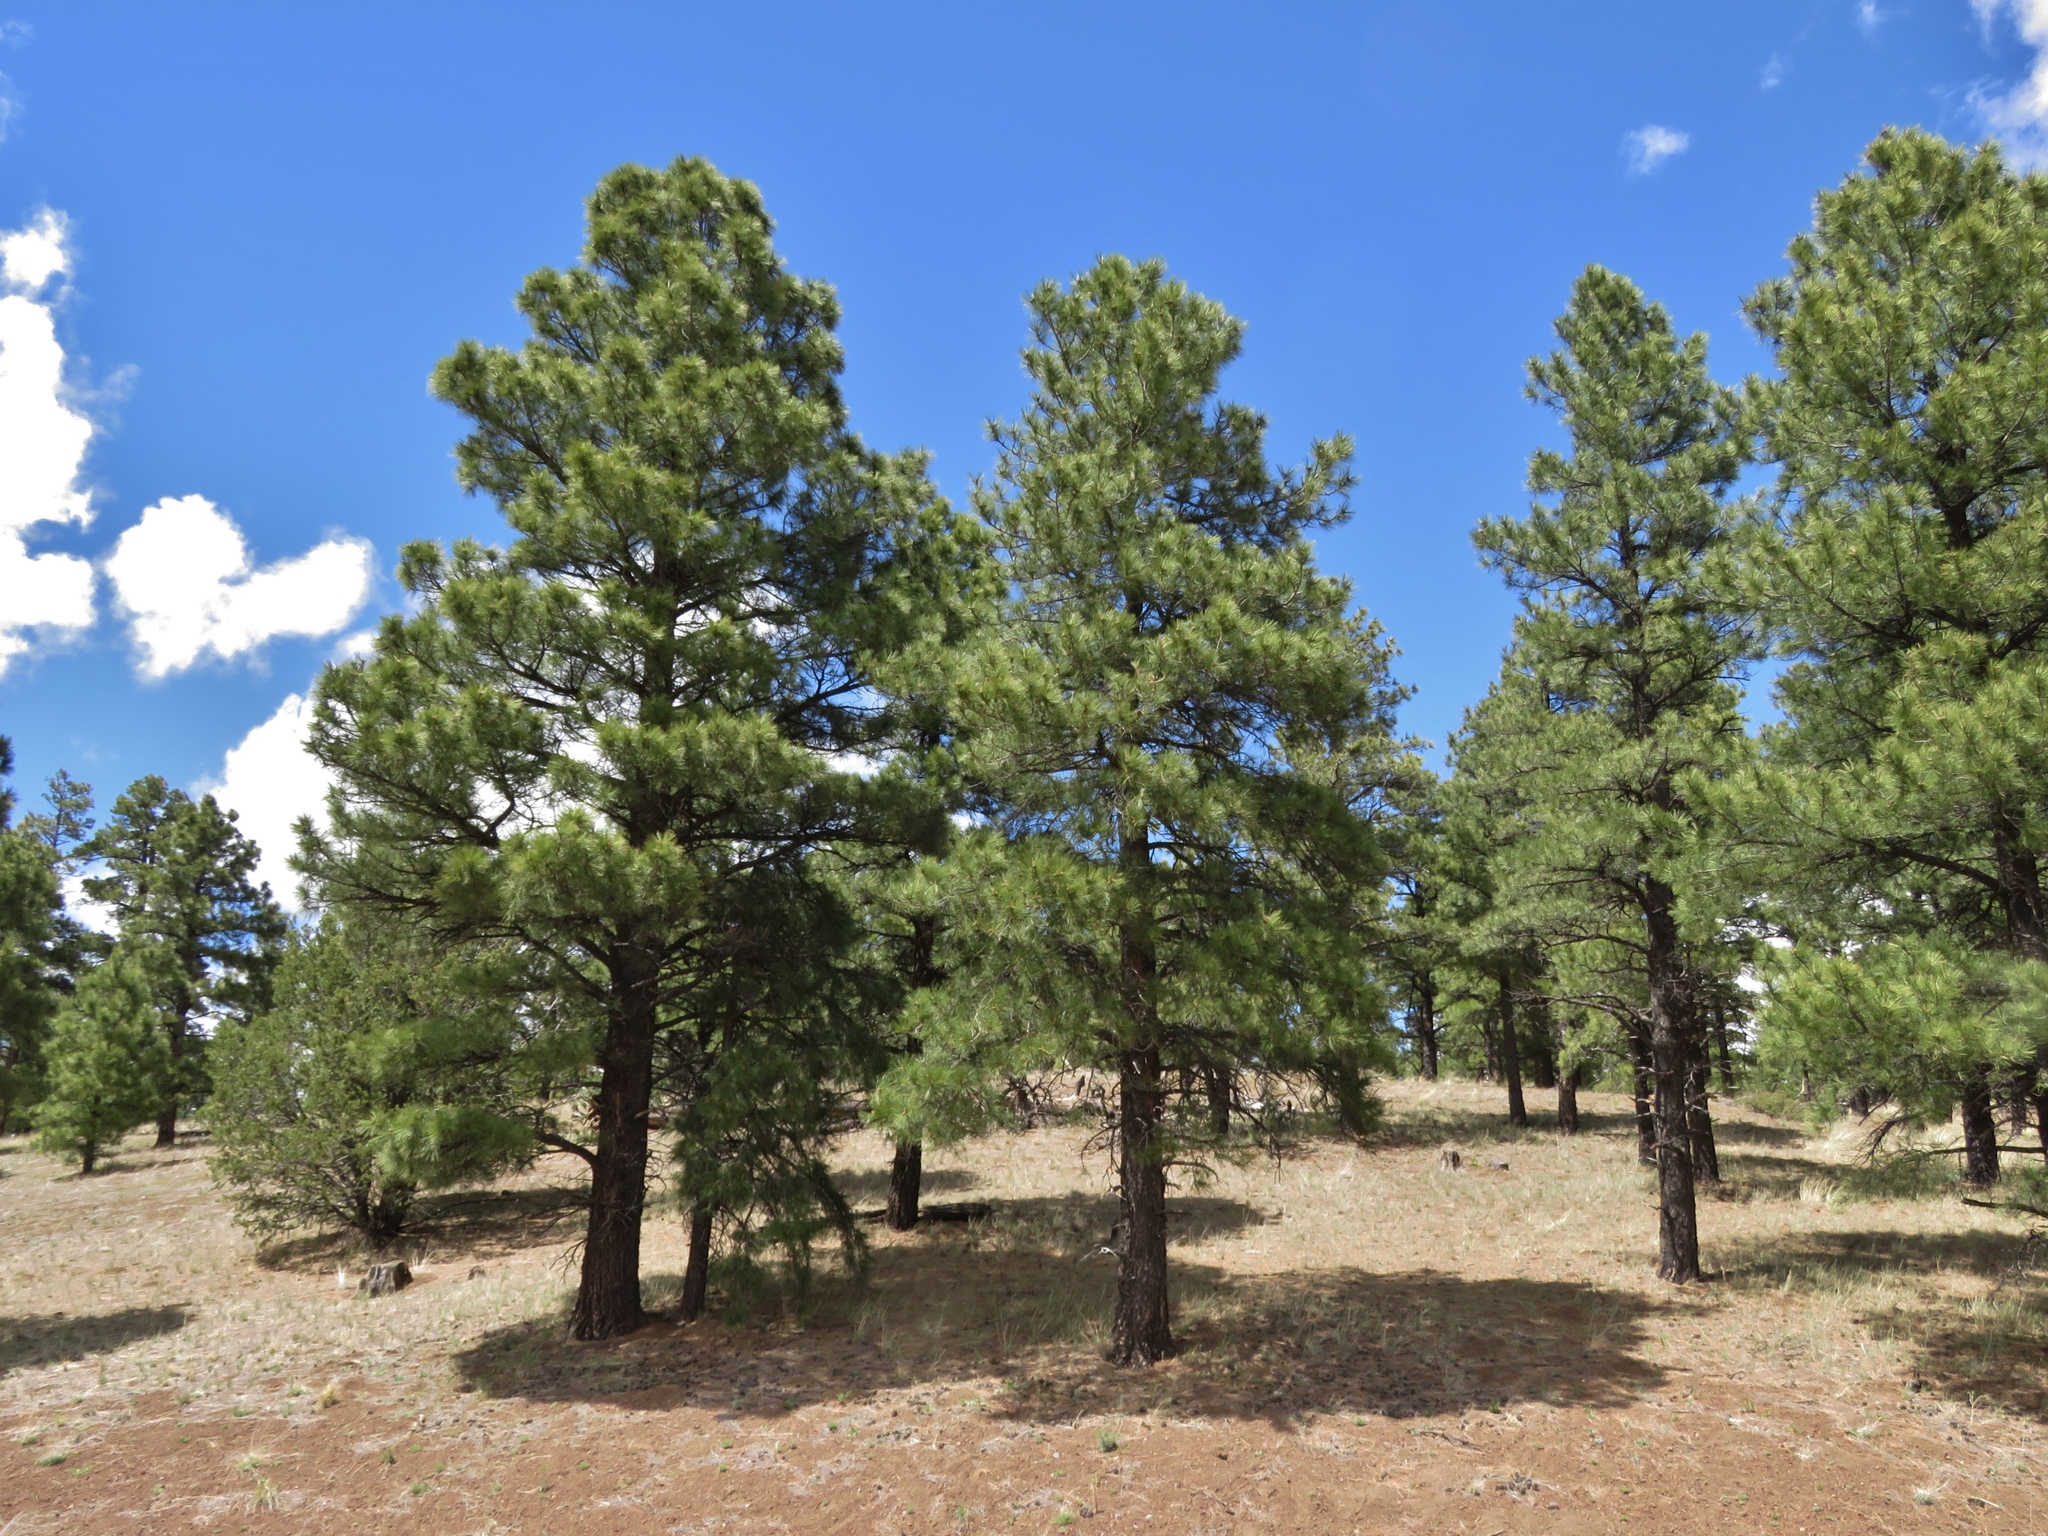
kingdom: Plantae
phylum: Tracheophyta
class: Pinopsida
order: Pinales
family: Pinaceae
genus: Pinus
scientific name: Pinus ponderosa
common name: Western yellow-pine
